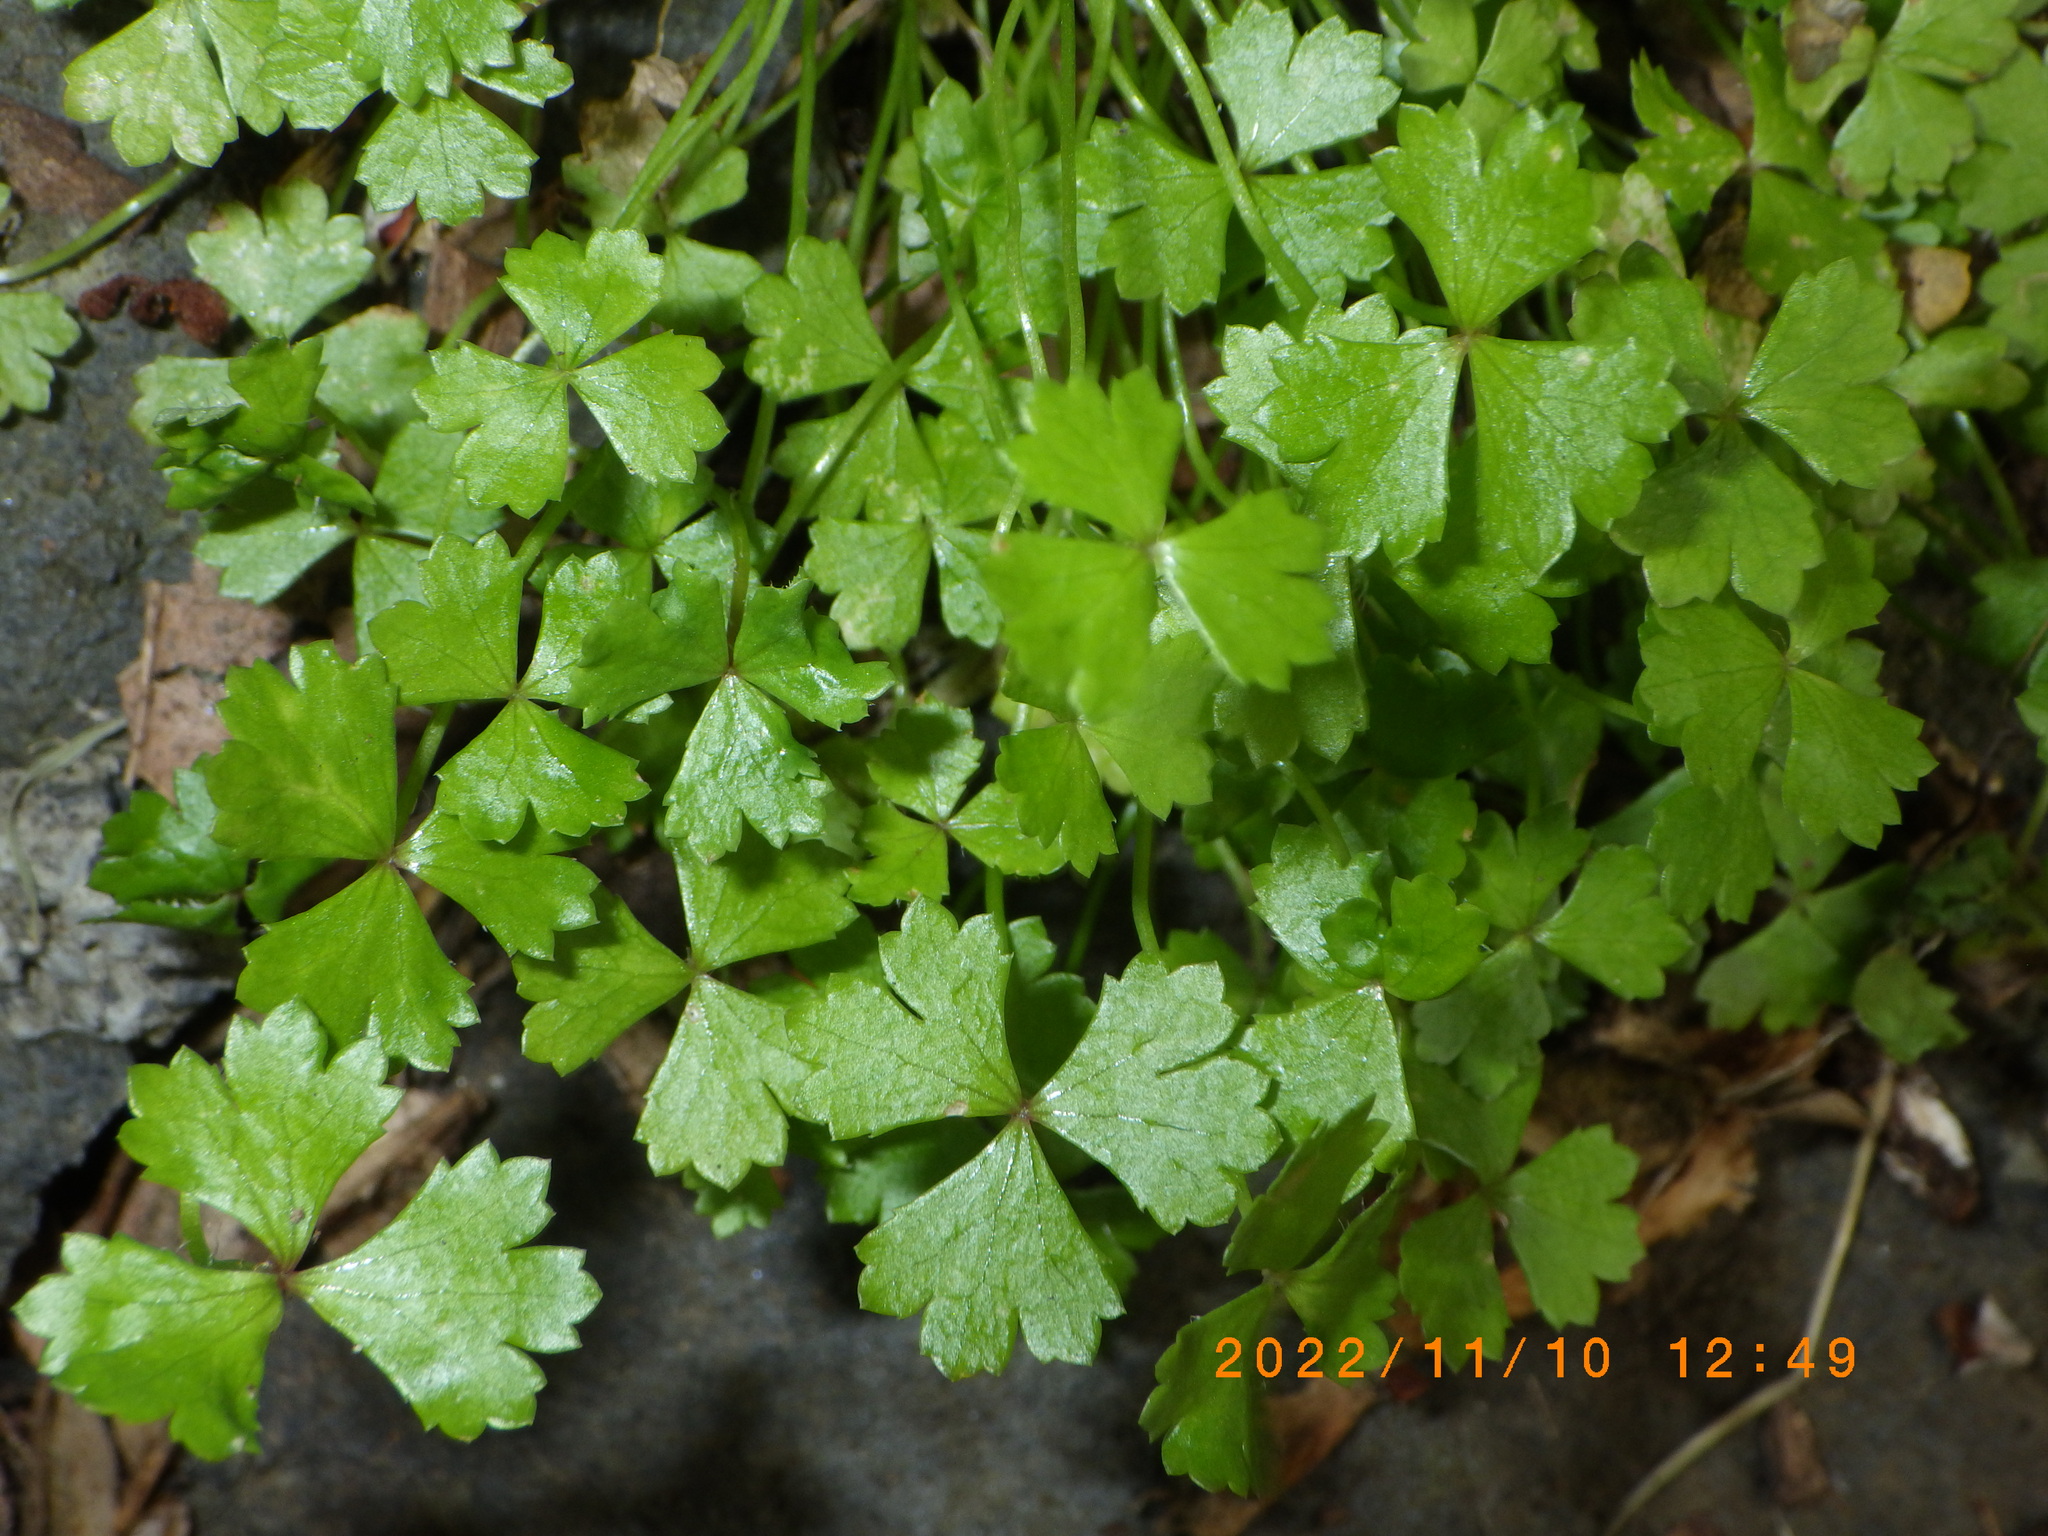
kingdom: Plantae
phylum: Tracheophyta
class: Magnoliopsida
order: Apiales
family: Araliaceae
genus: Hydrocotyle
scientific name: Hydrocotyle tripartita
